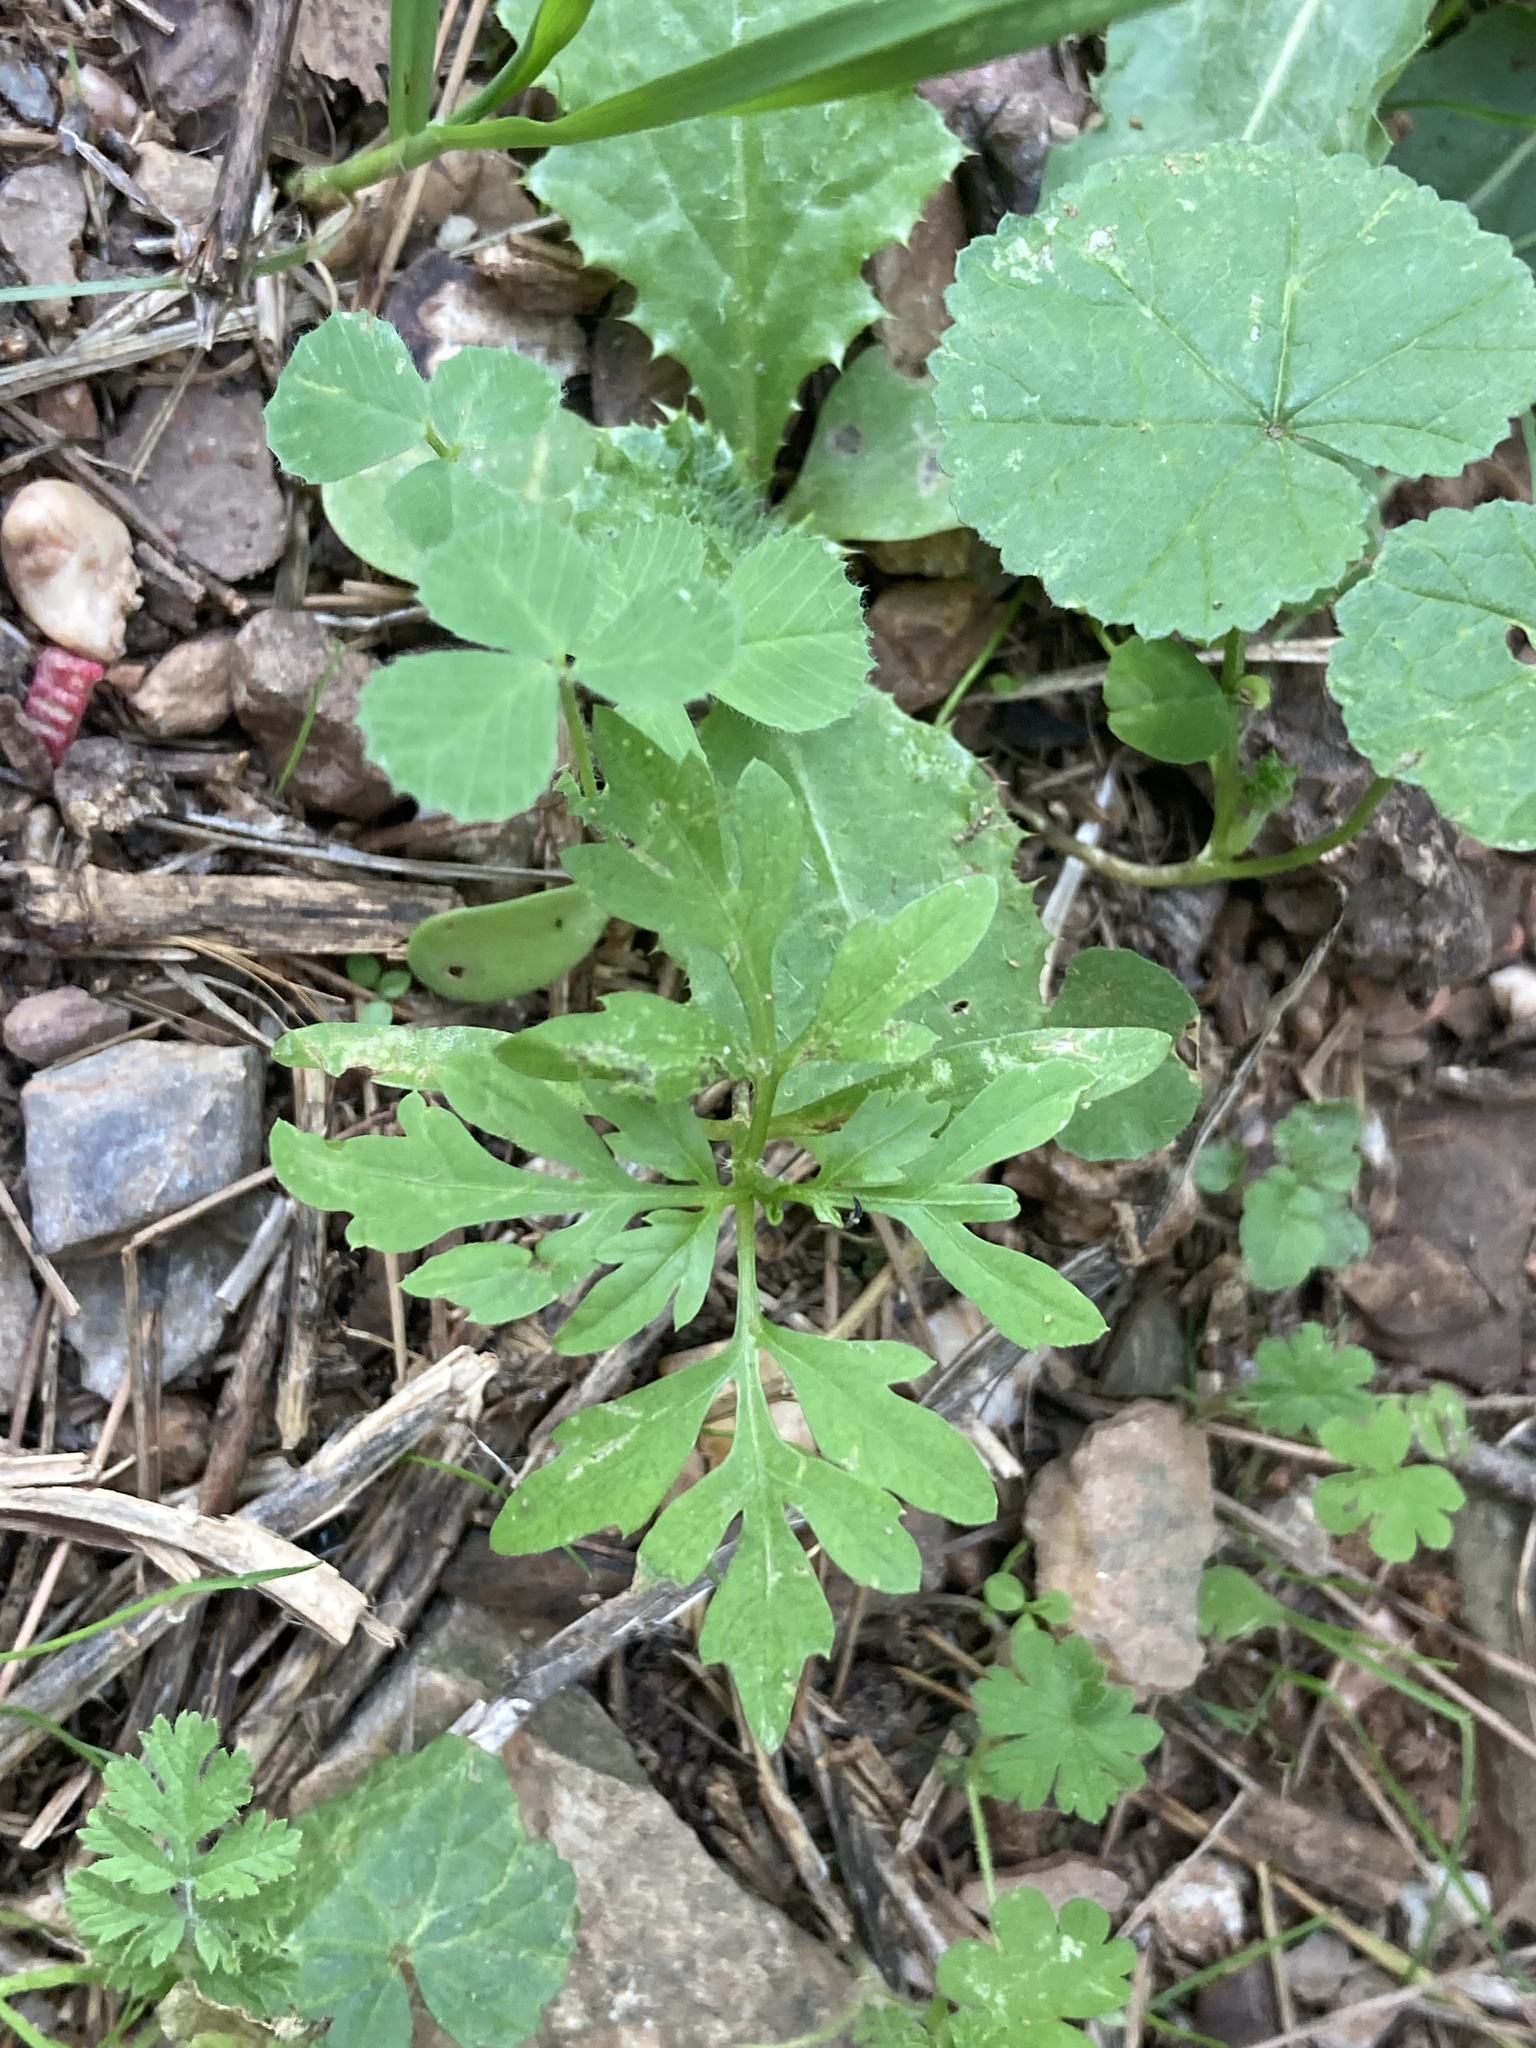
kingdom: Plantae
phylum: Tracheophyta
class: Magnoliopsida
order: Asterales
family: Asteraceae
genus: Bidens
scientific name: Bidens subalternans
